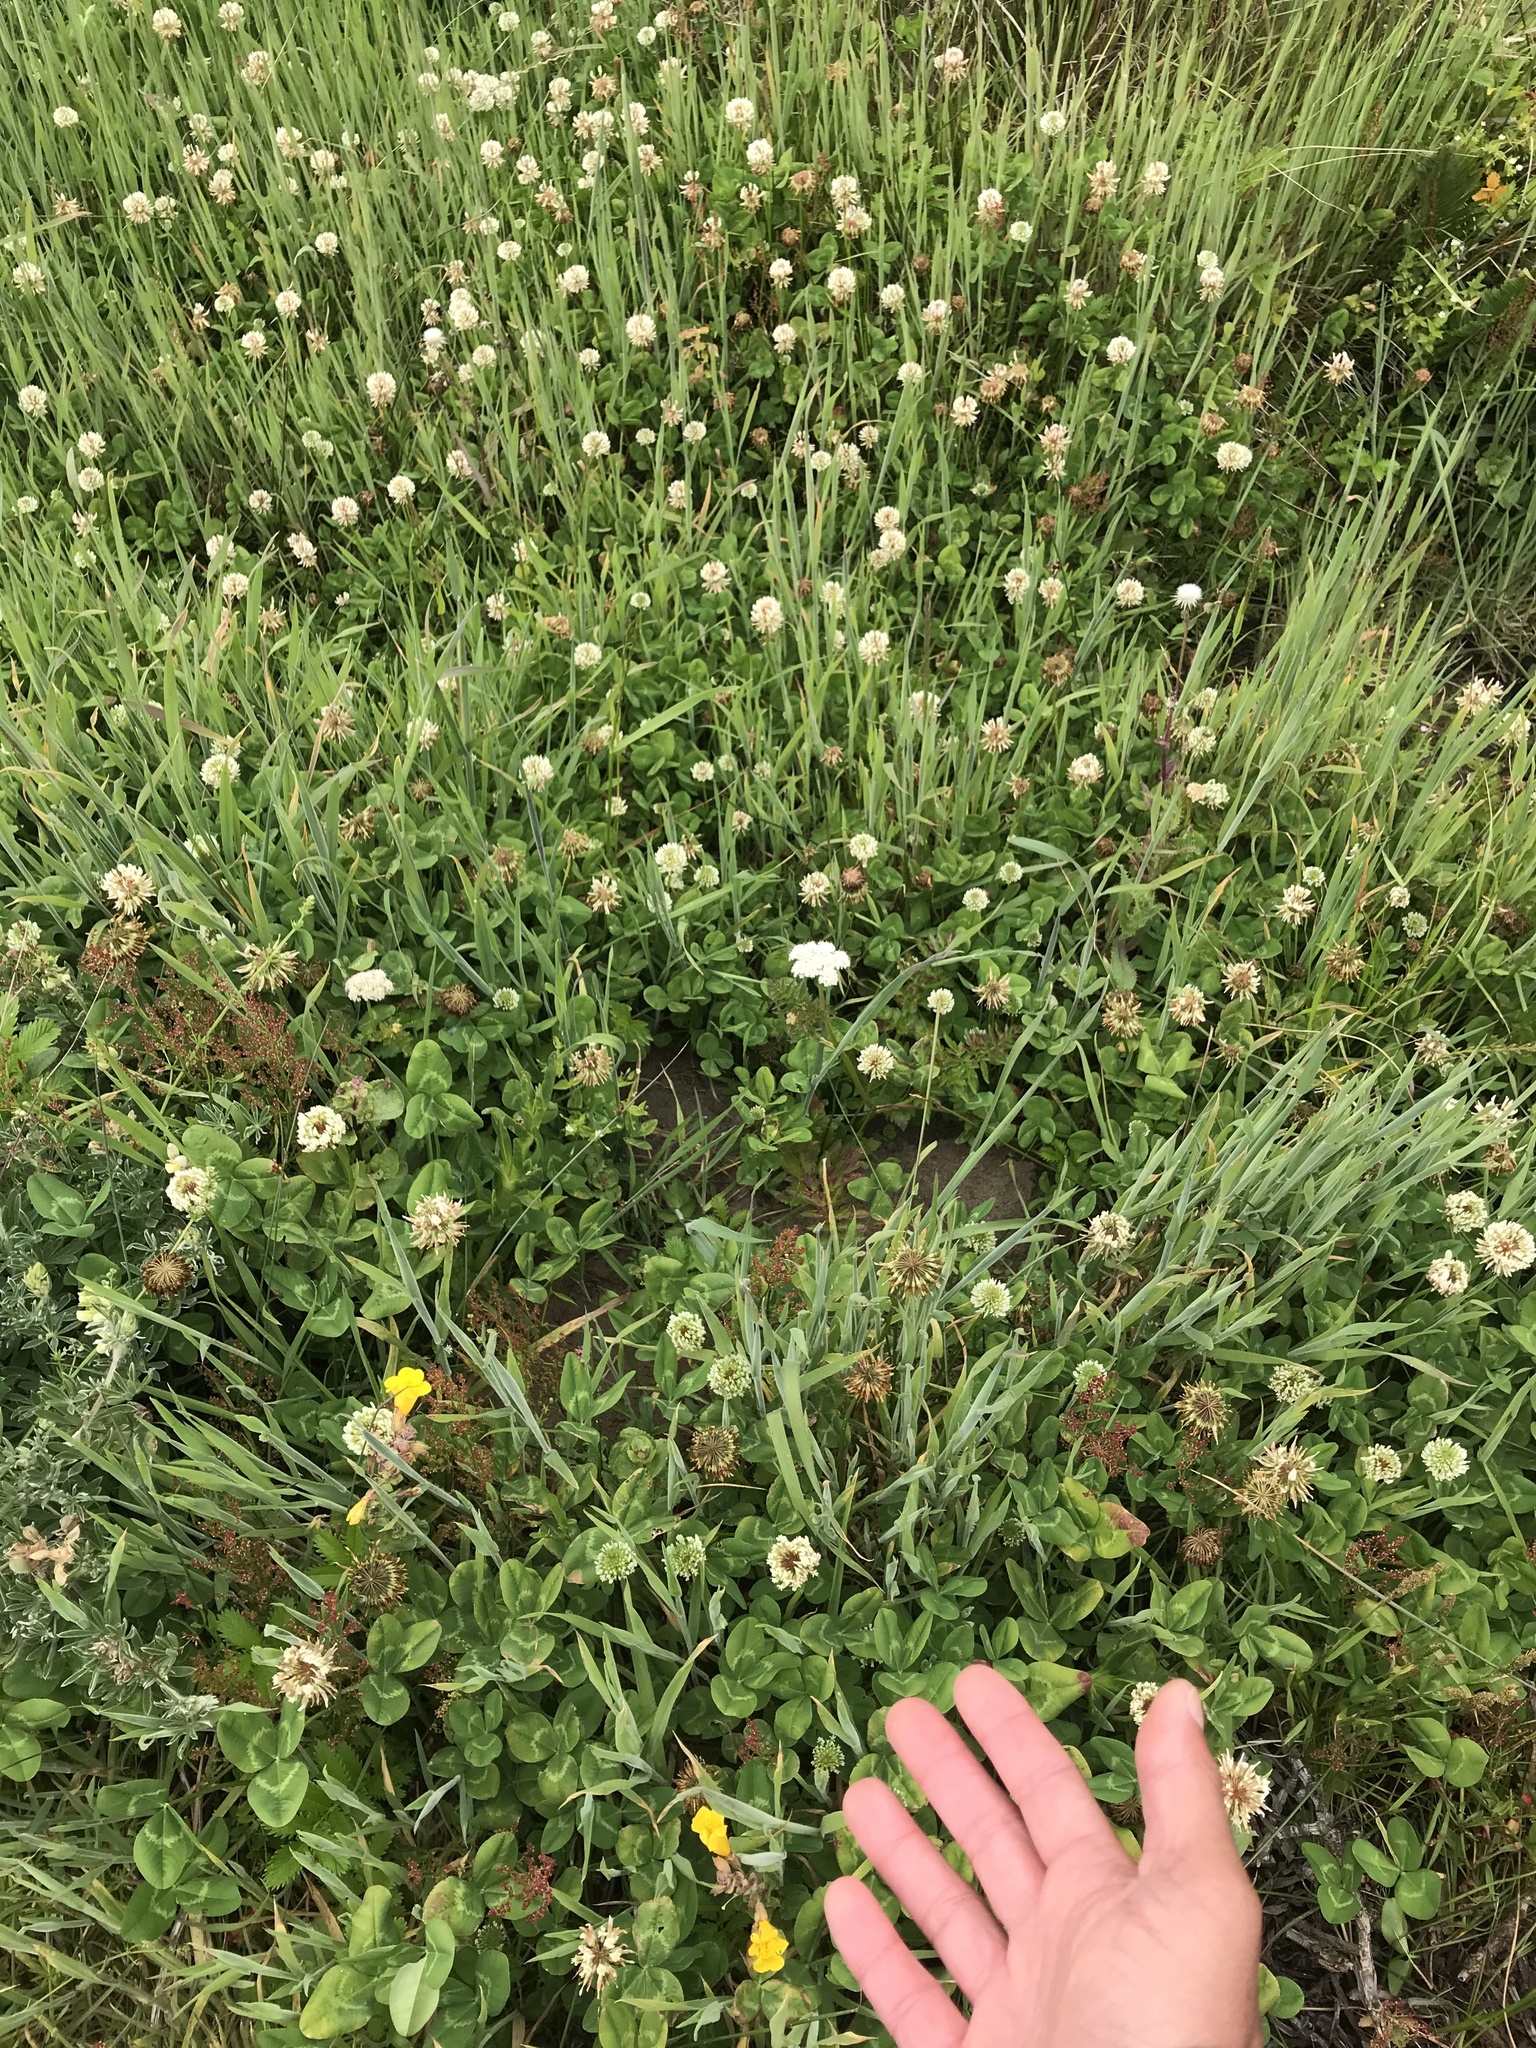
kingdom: Plantae
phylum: Tracheophyta
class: Magnoliopsida
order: Fabales
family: Fabaceae
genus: Trifolium
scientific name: Trifolium repens
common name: White clover
